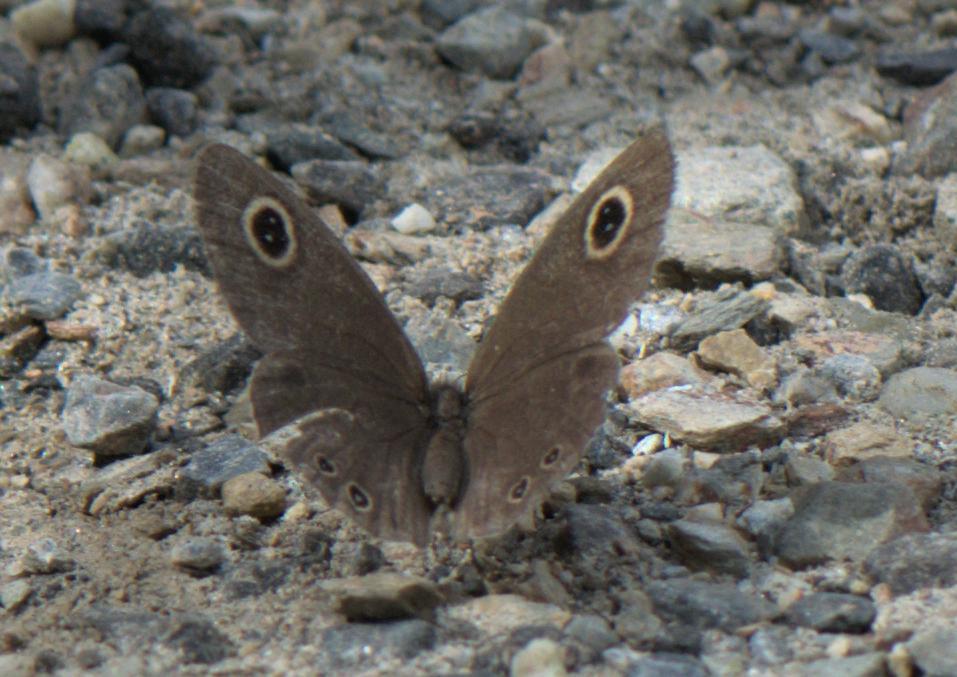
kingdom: Animalia
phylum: Arthropoda
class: Insecta
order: Lepidoptera
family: Nymphalidae
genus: Ypthima
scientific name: Ypthima huebneri
